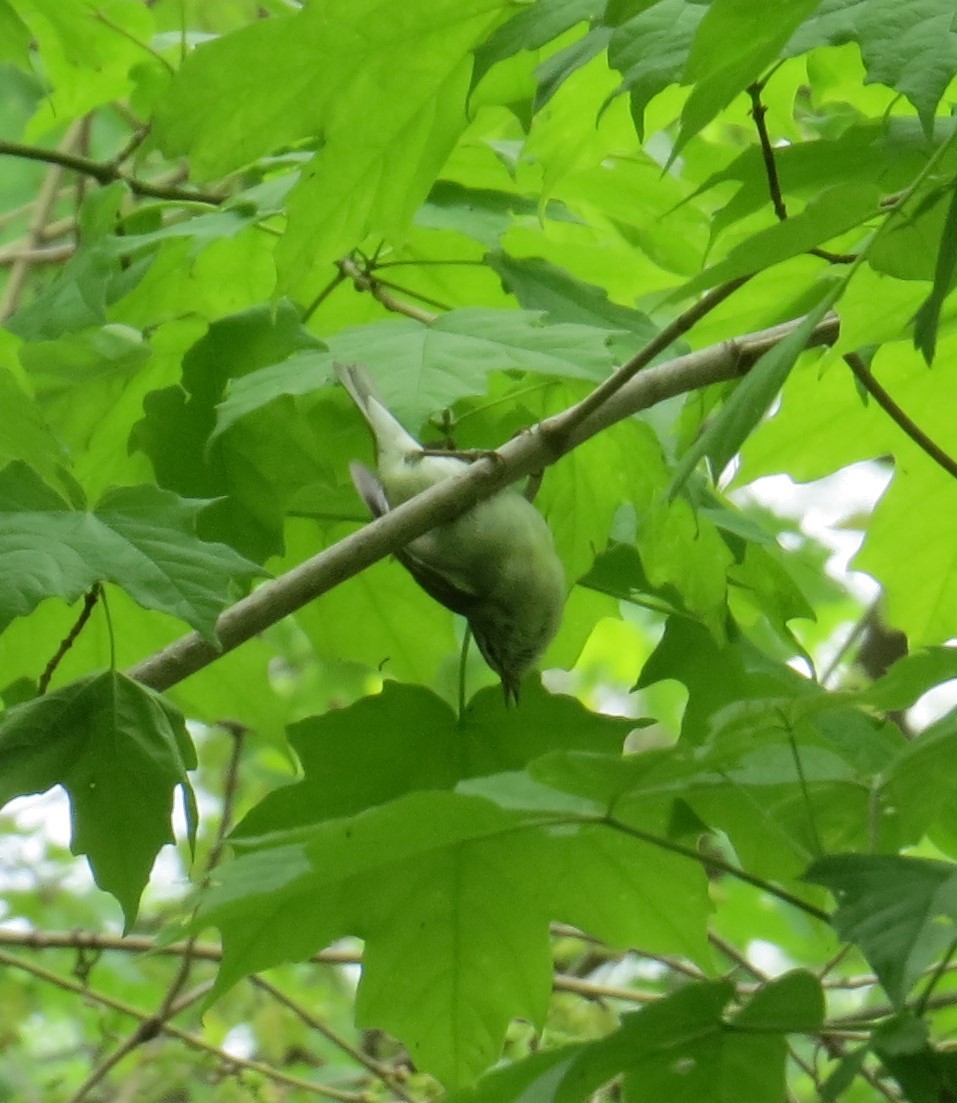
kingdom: Animalia
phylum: Chordata
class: Aves
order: Passeriformes
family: Parulidae
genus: Leiothlypis
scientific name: Leiothlypis peregrina
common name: Tennessee warbler
